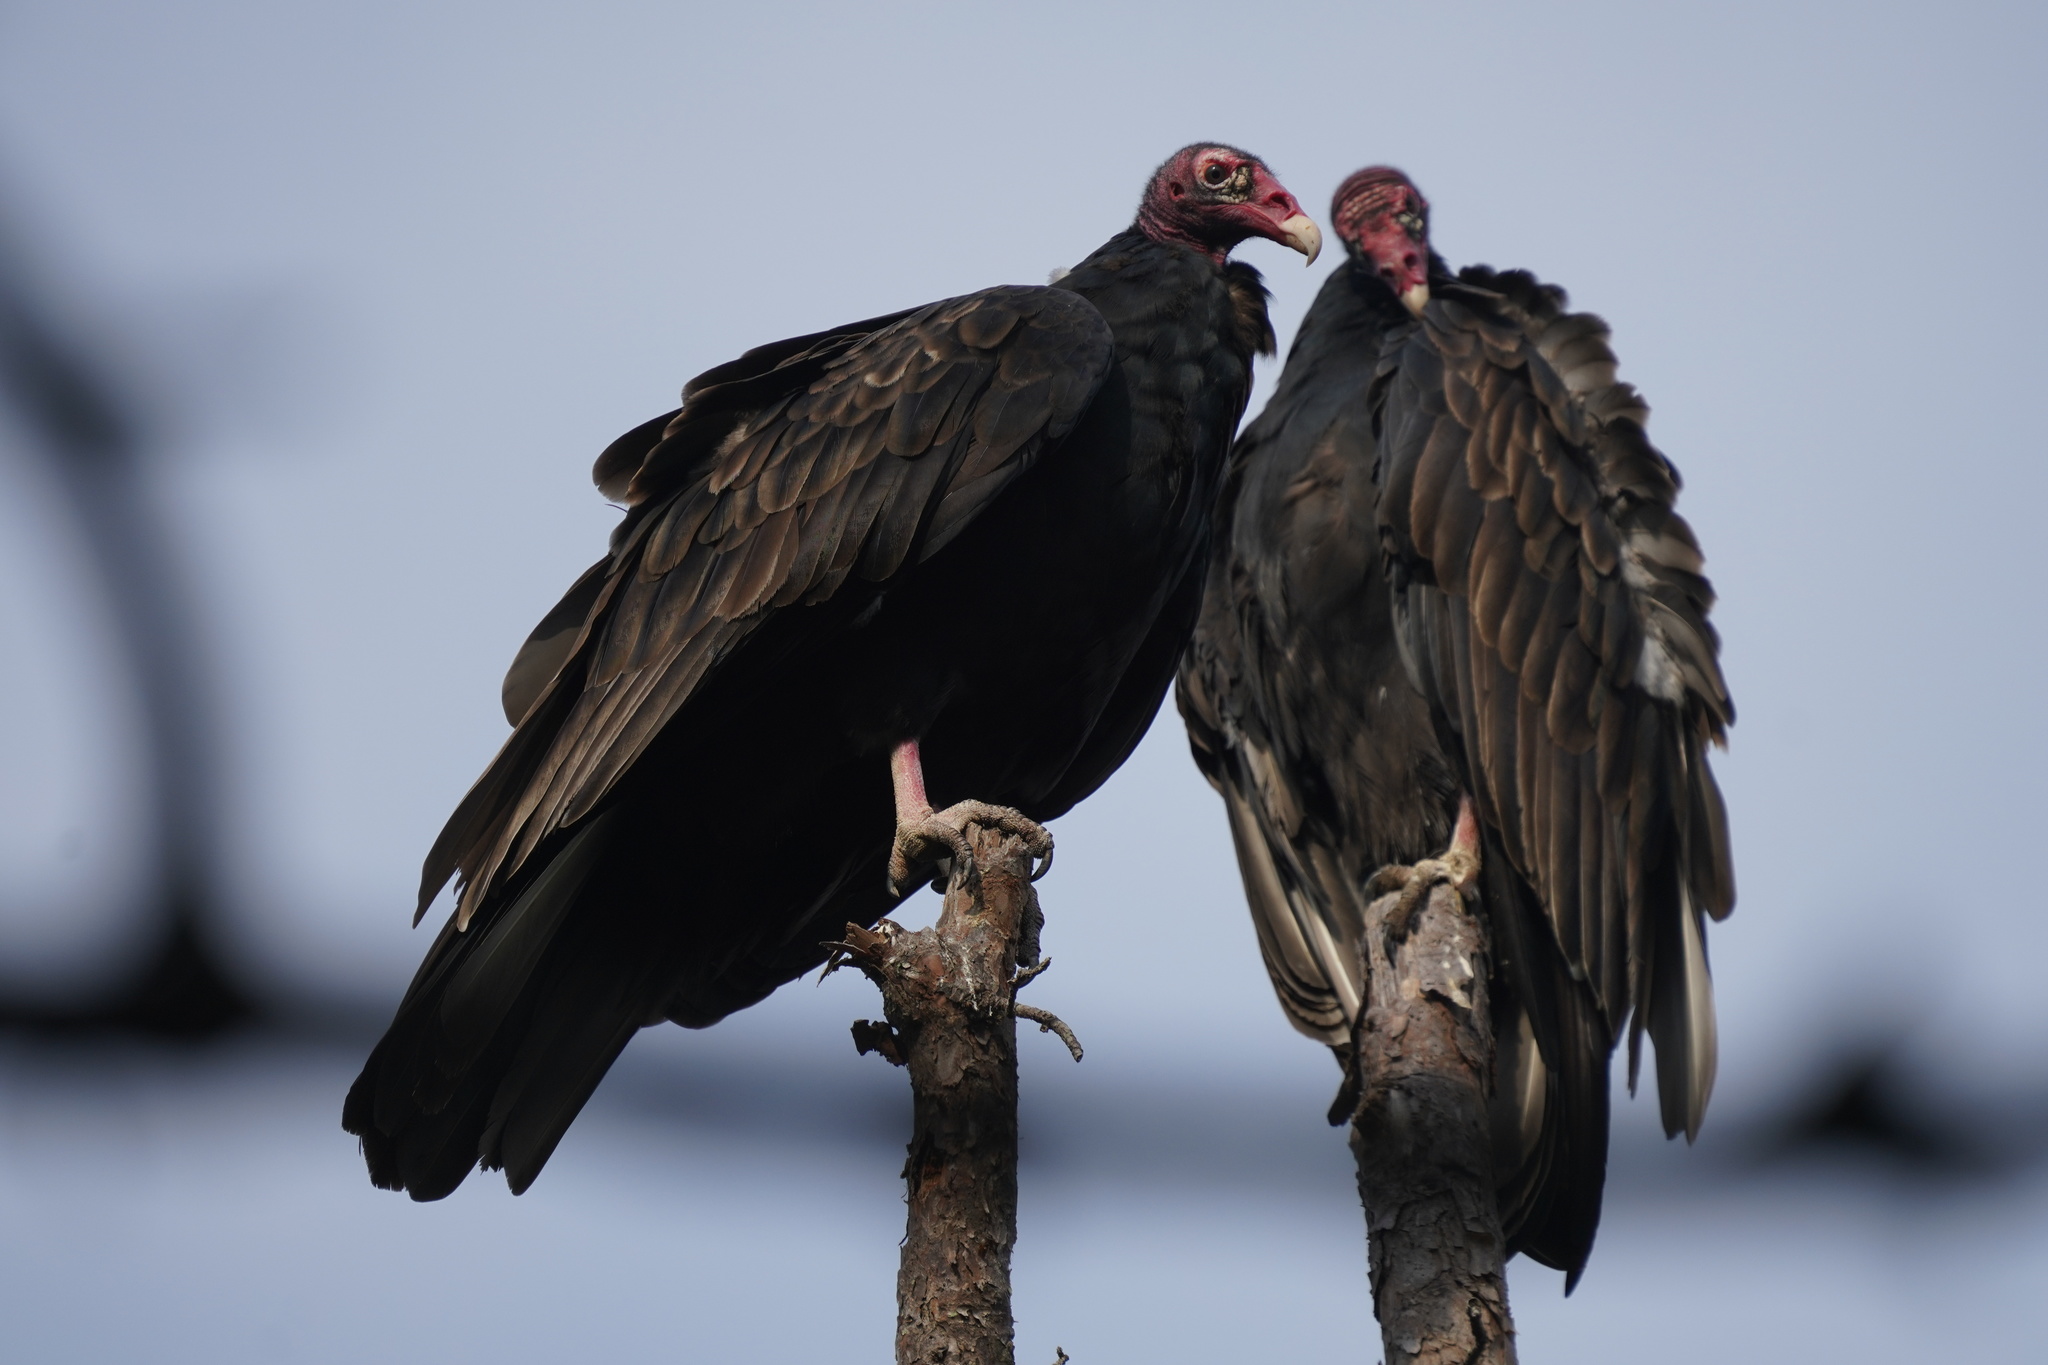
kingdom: Animalia
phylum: Chordata
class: Aves
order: Accipitriformes
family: Cathartidae
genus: Cathartes
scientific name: Cathartes aura
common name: Turkey vulture
